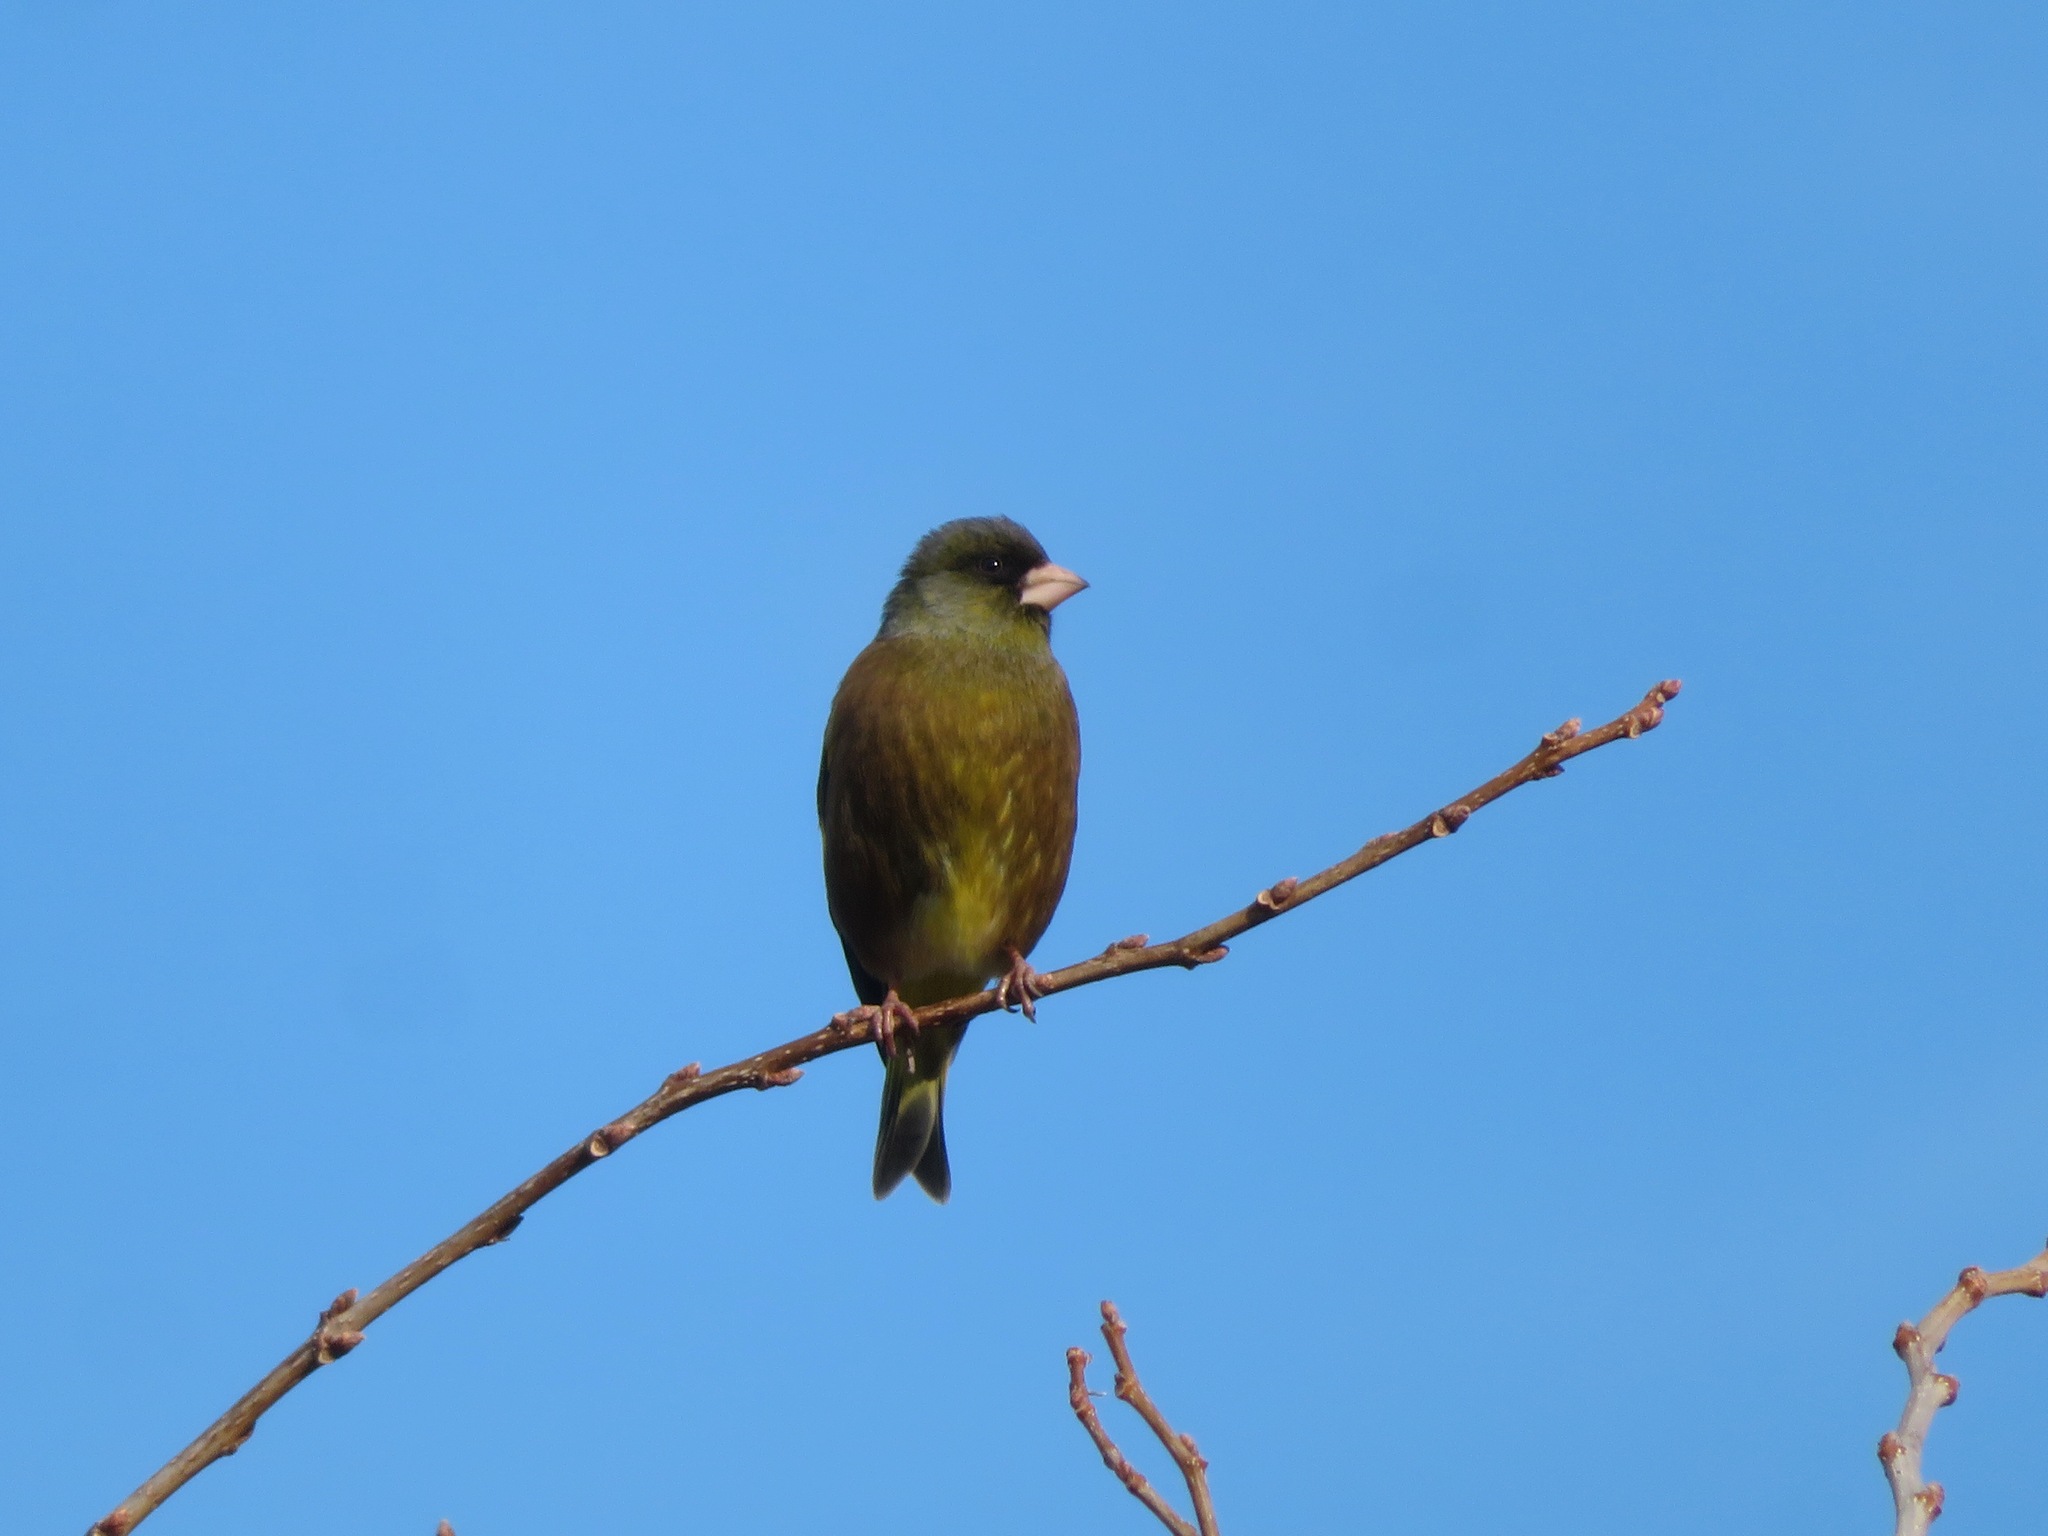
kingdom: Plantae
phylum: Tracheophyta
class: Liliopsida
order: Poales
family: Poaceae
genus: Chloris
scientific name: Chloris sinica
